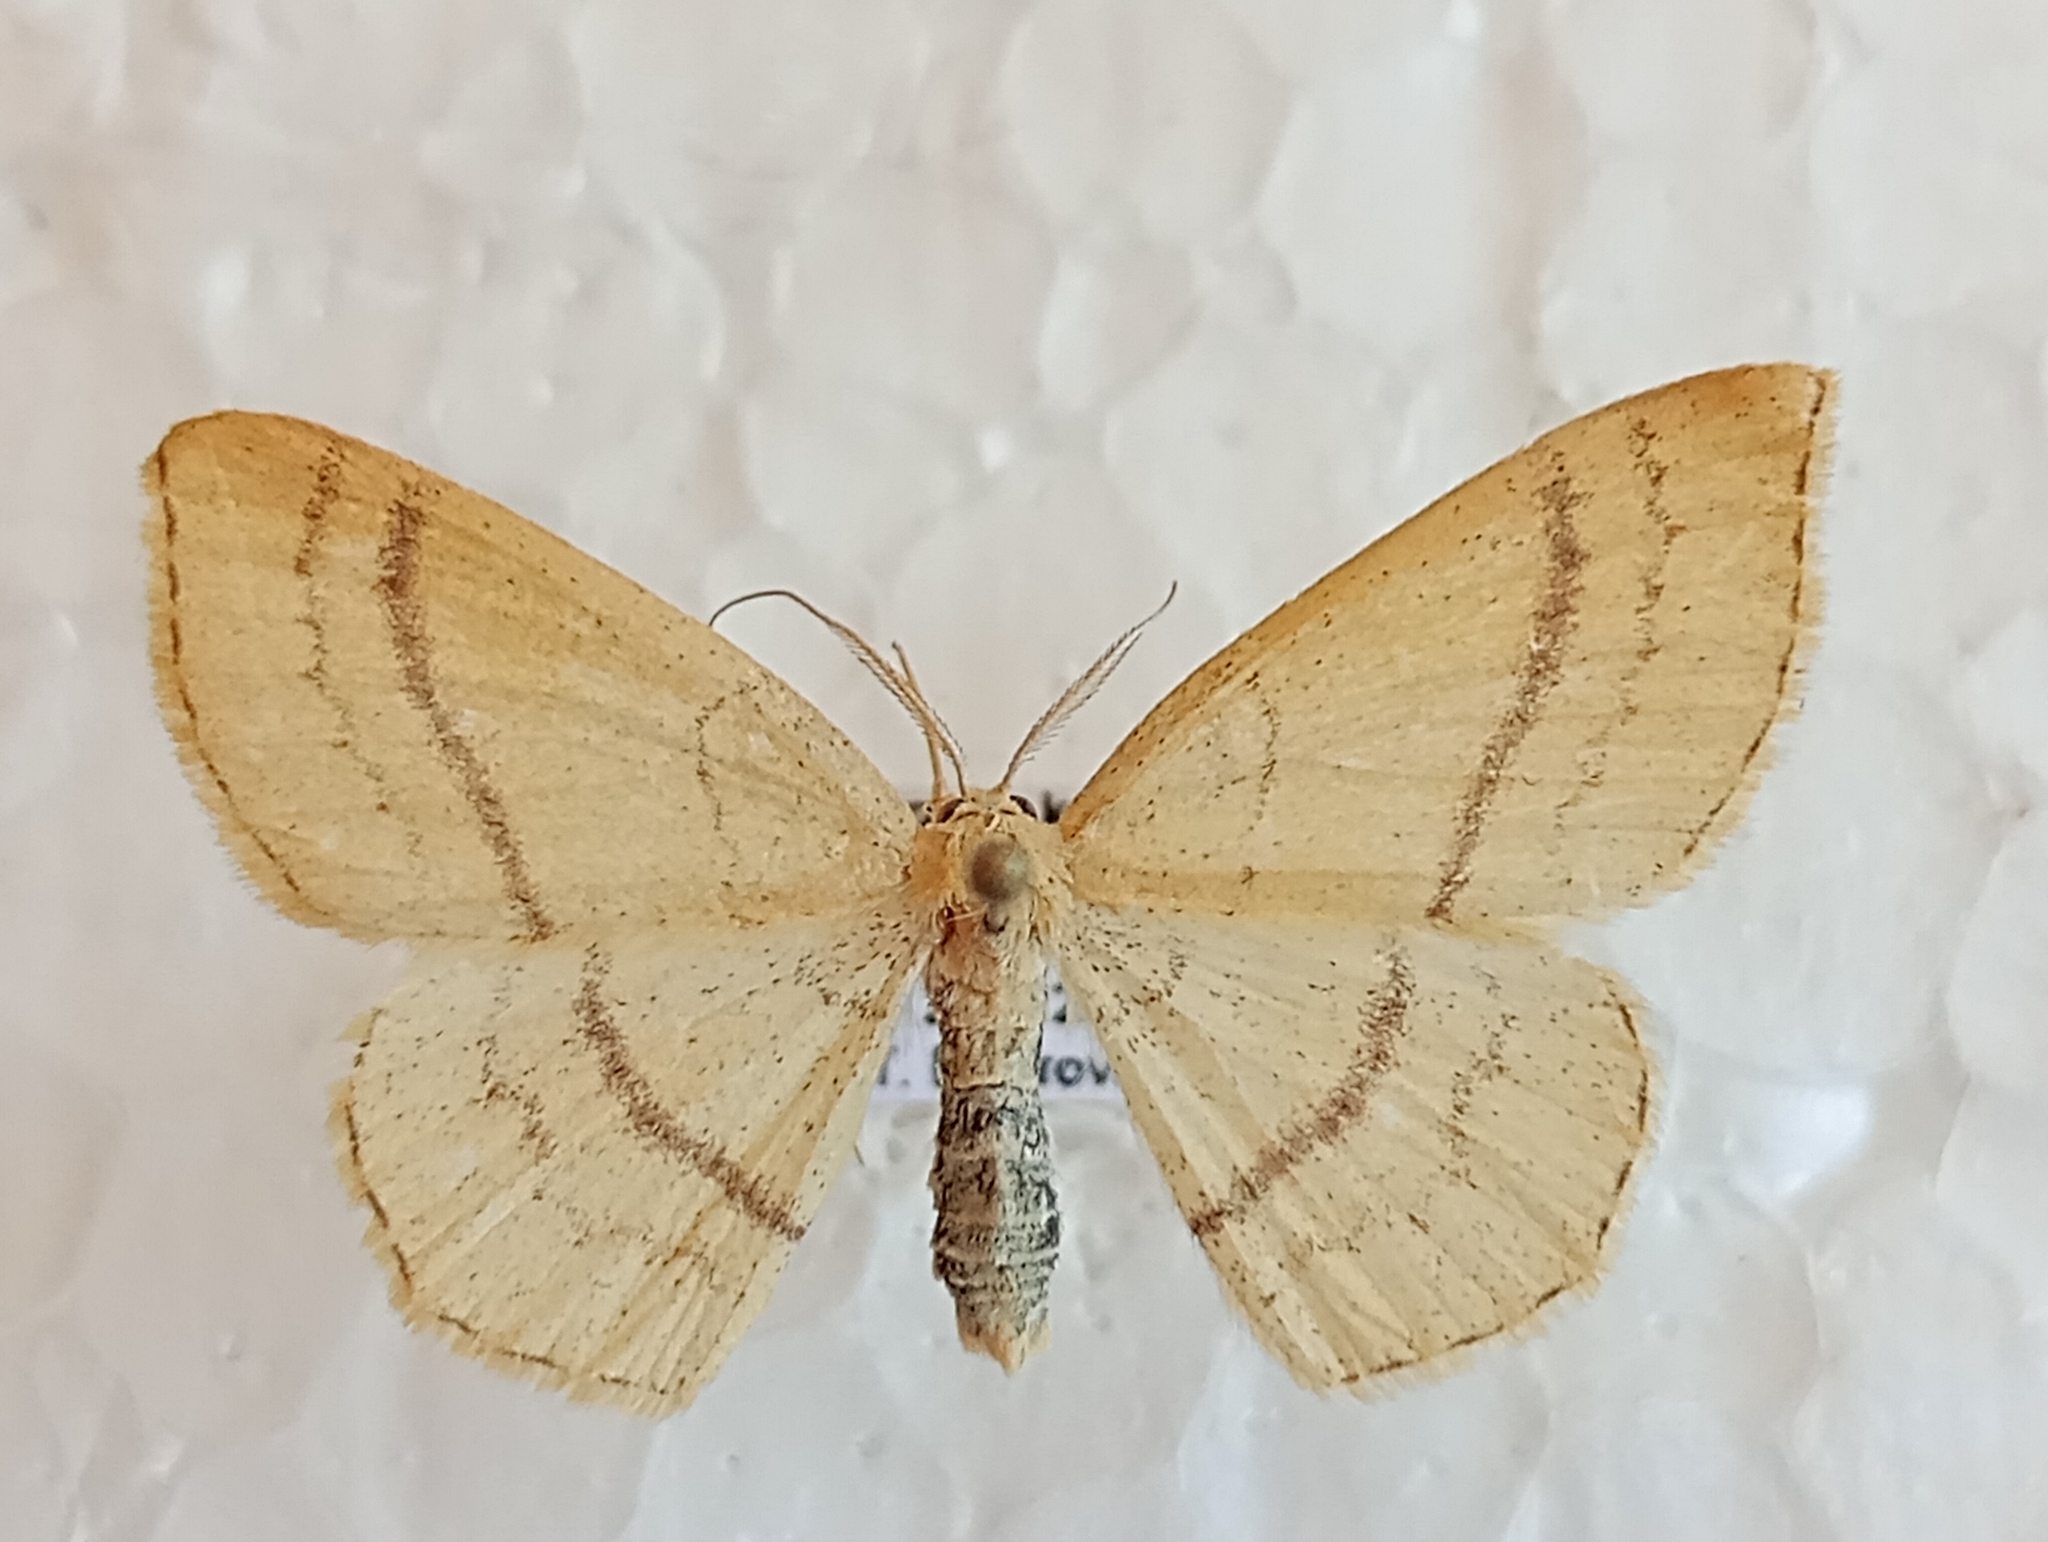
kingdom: Animalia
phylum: Arthropoda
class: Insecta
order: Lepidoptera
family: Geometridae
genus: Cyclophora
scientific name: Cyclophora linearia
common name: Clay triple-lines
